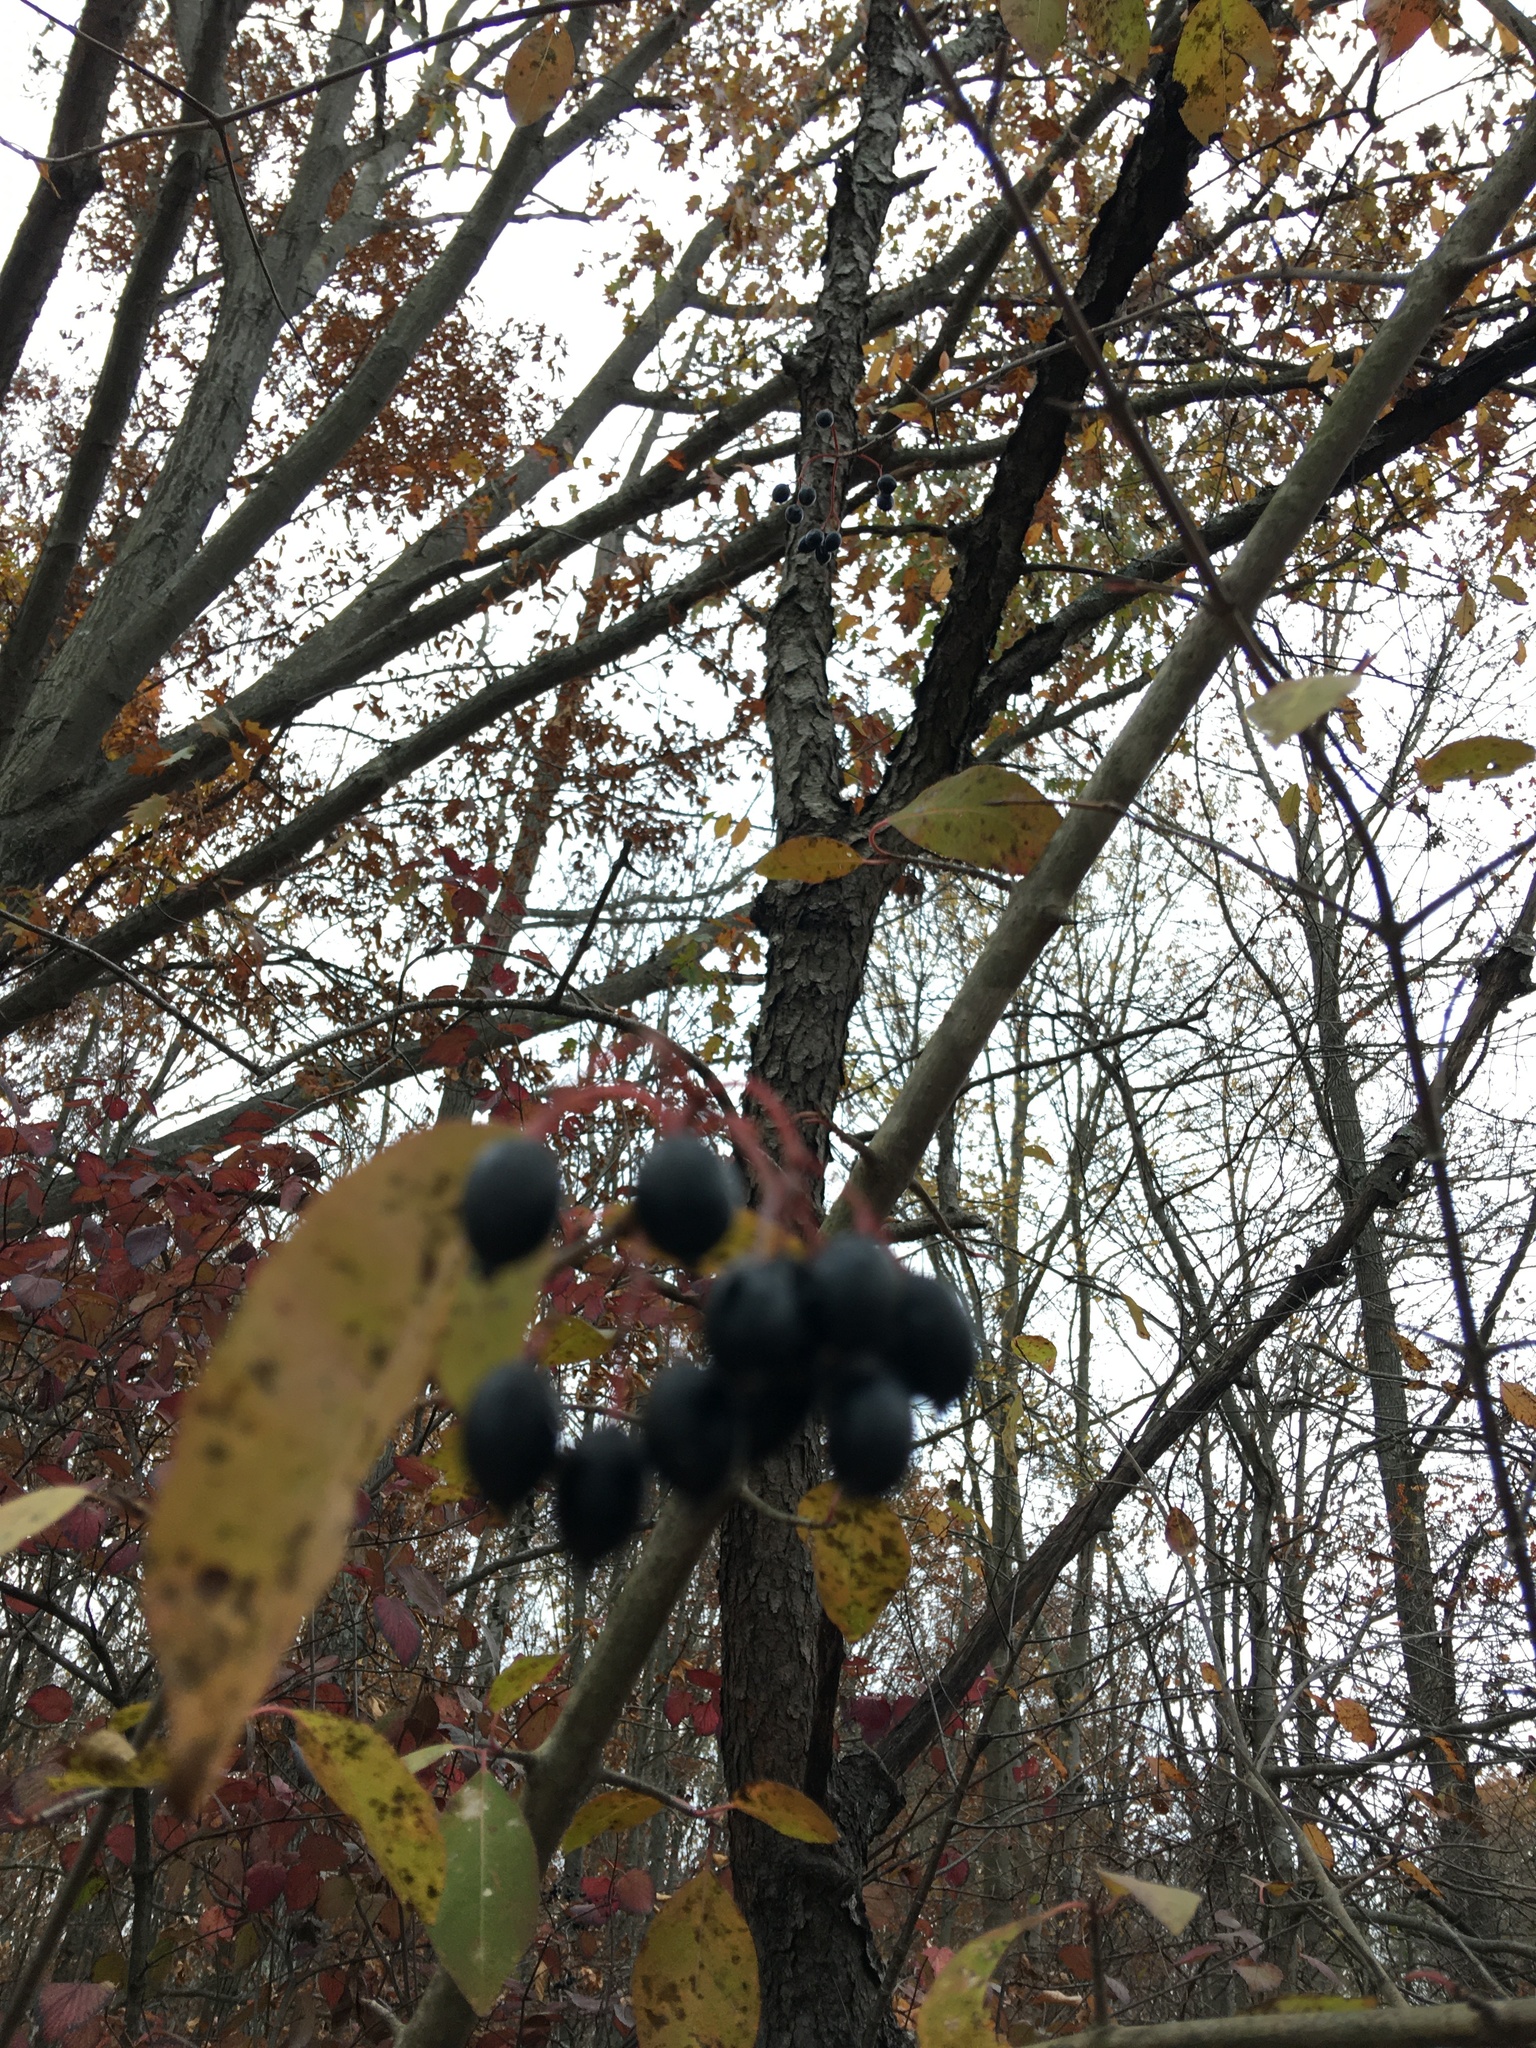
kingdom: Plantae
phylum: Tracheophyta
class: Magnoliopsida
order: Dipsacales
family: Viburnaceae
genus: Viburnum
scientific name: Viburnum prunifolium
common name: Black haw
